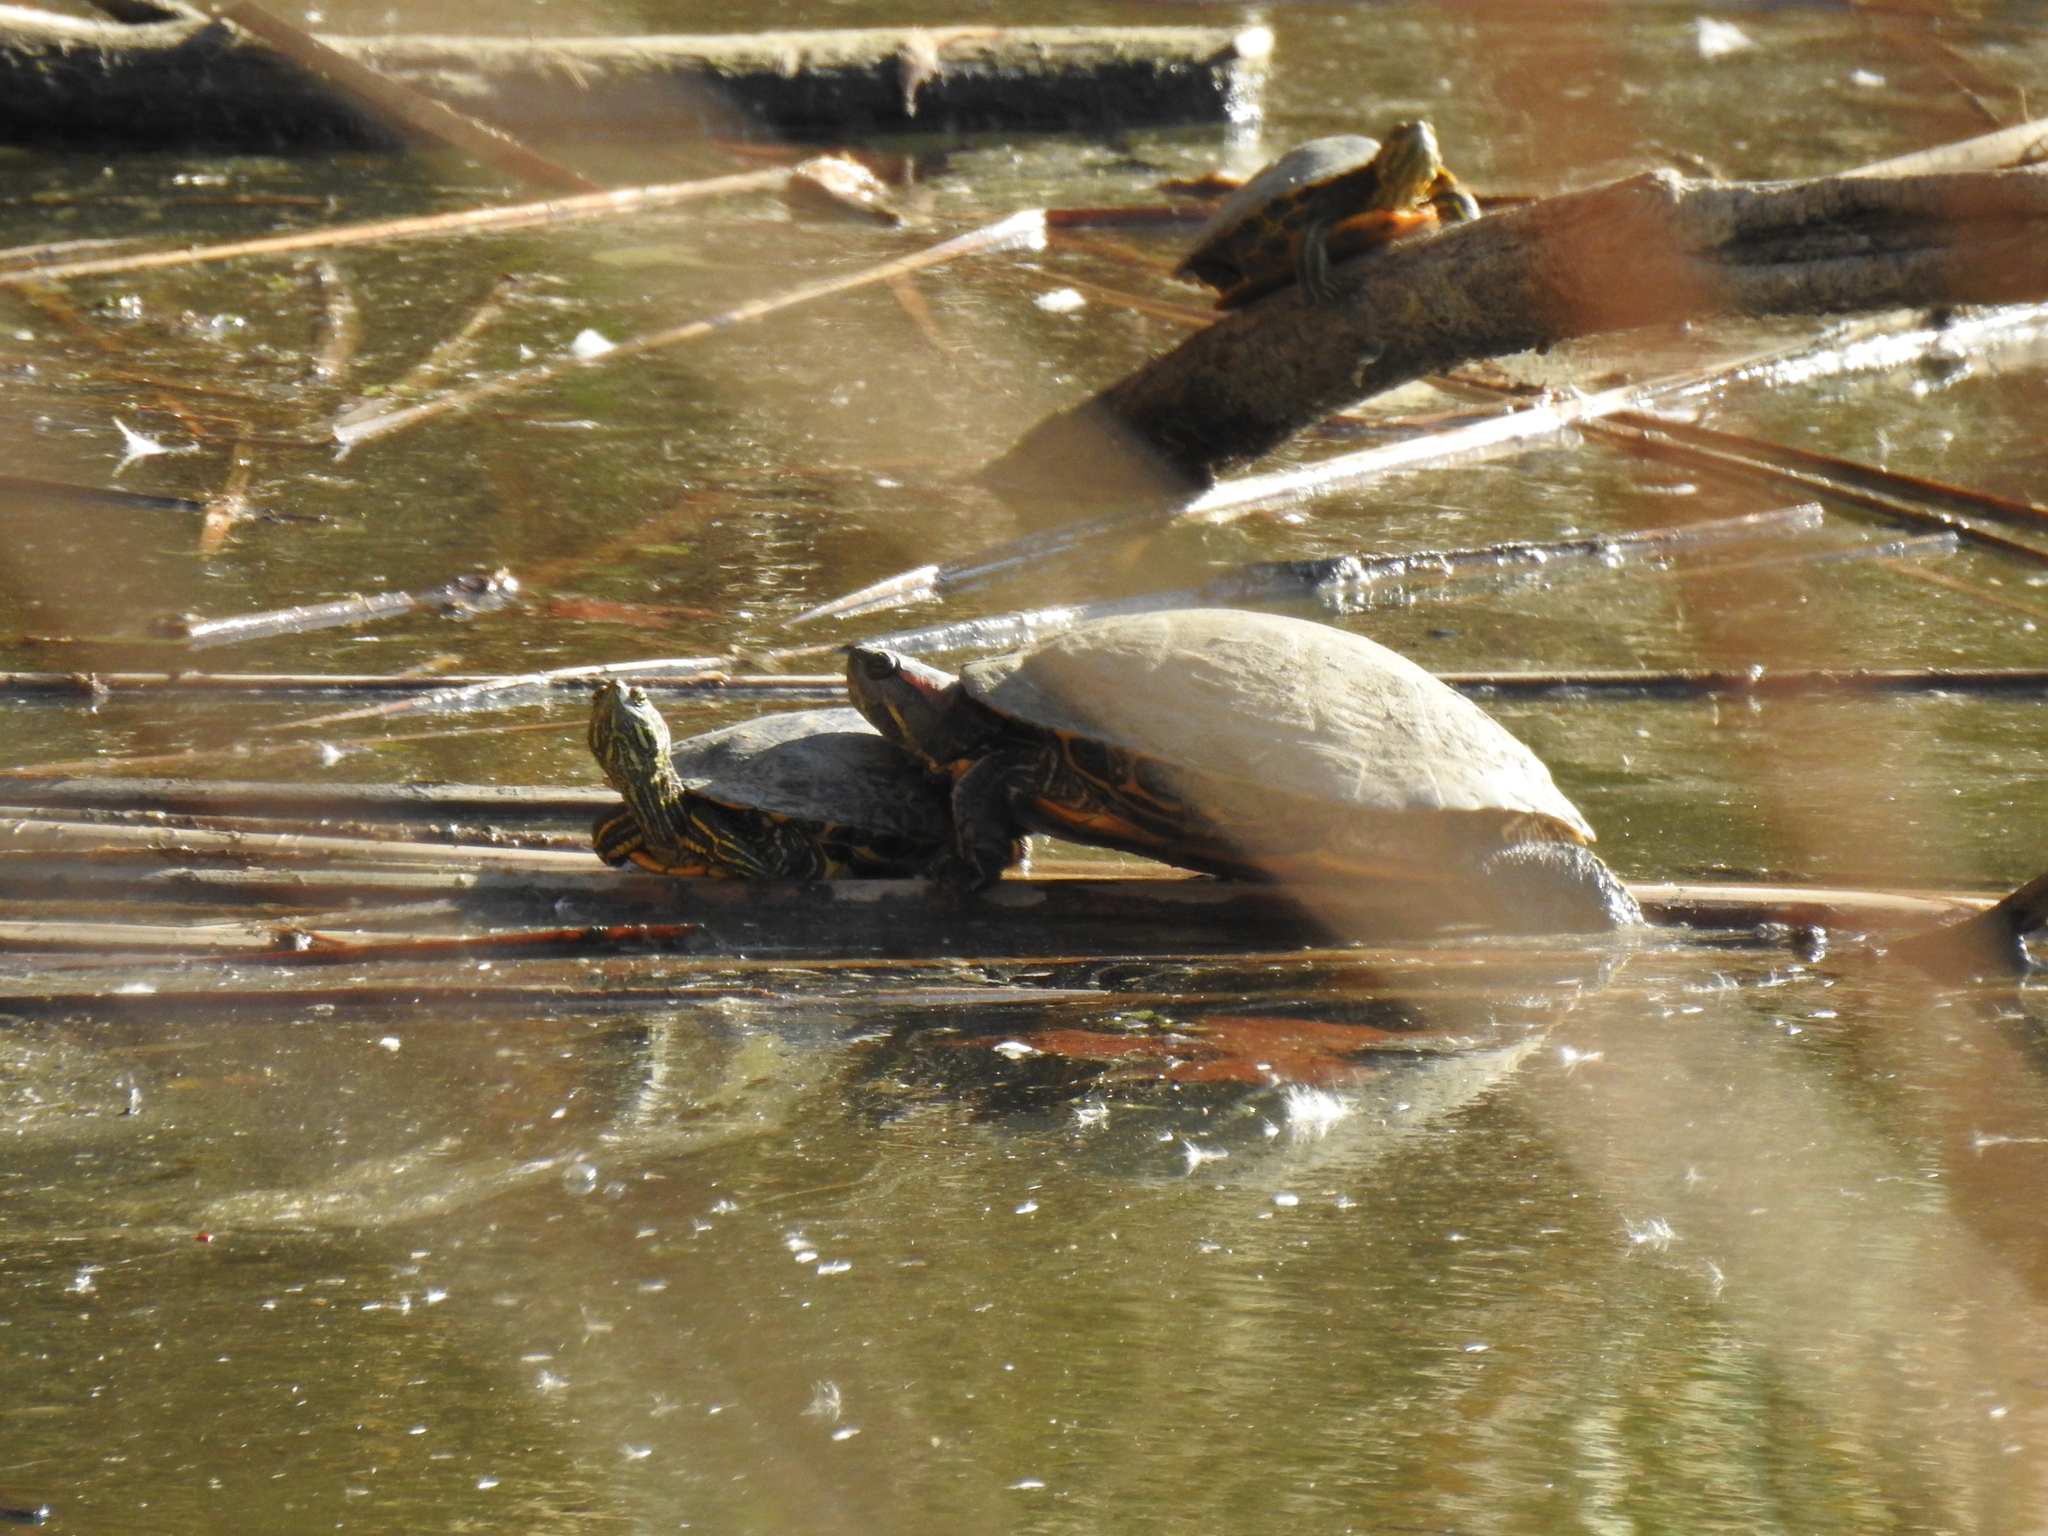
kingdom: Animalia
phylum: Chordata
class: Testudines
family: Emydidae
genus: Trachemys
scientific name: Trachemys scripta
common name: Slider
